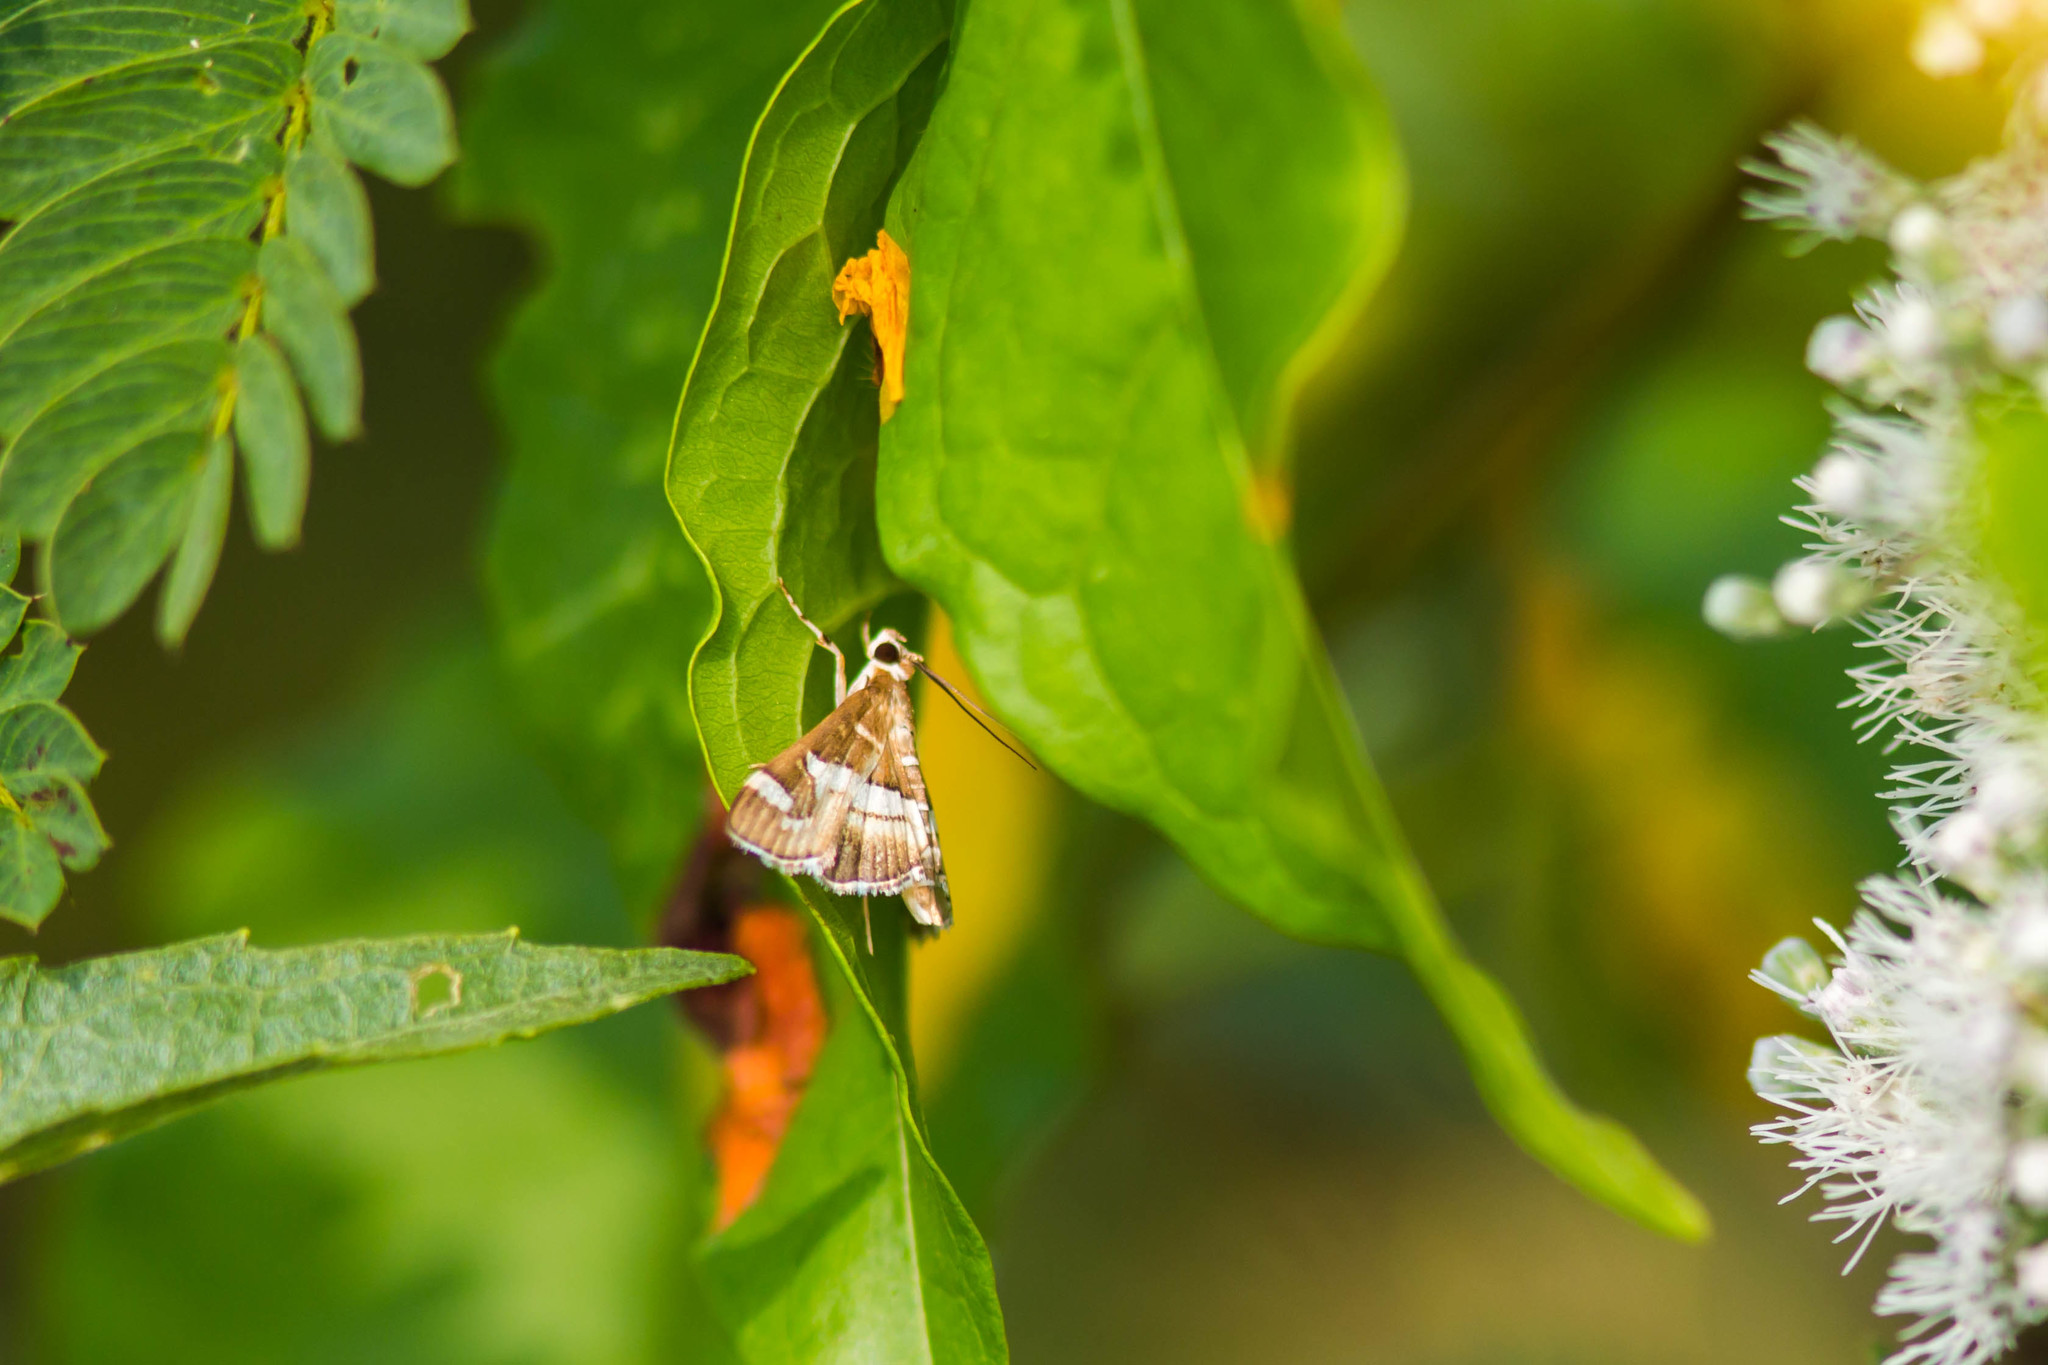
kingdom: Animalia
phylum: Arthropoda
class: Insecta
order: Lepidoptera
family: Crambidae
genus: Spoladea
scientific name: Spoladea recurvalis
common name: Beet webworm moth
